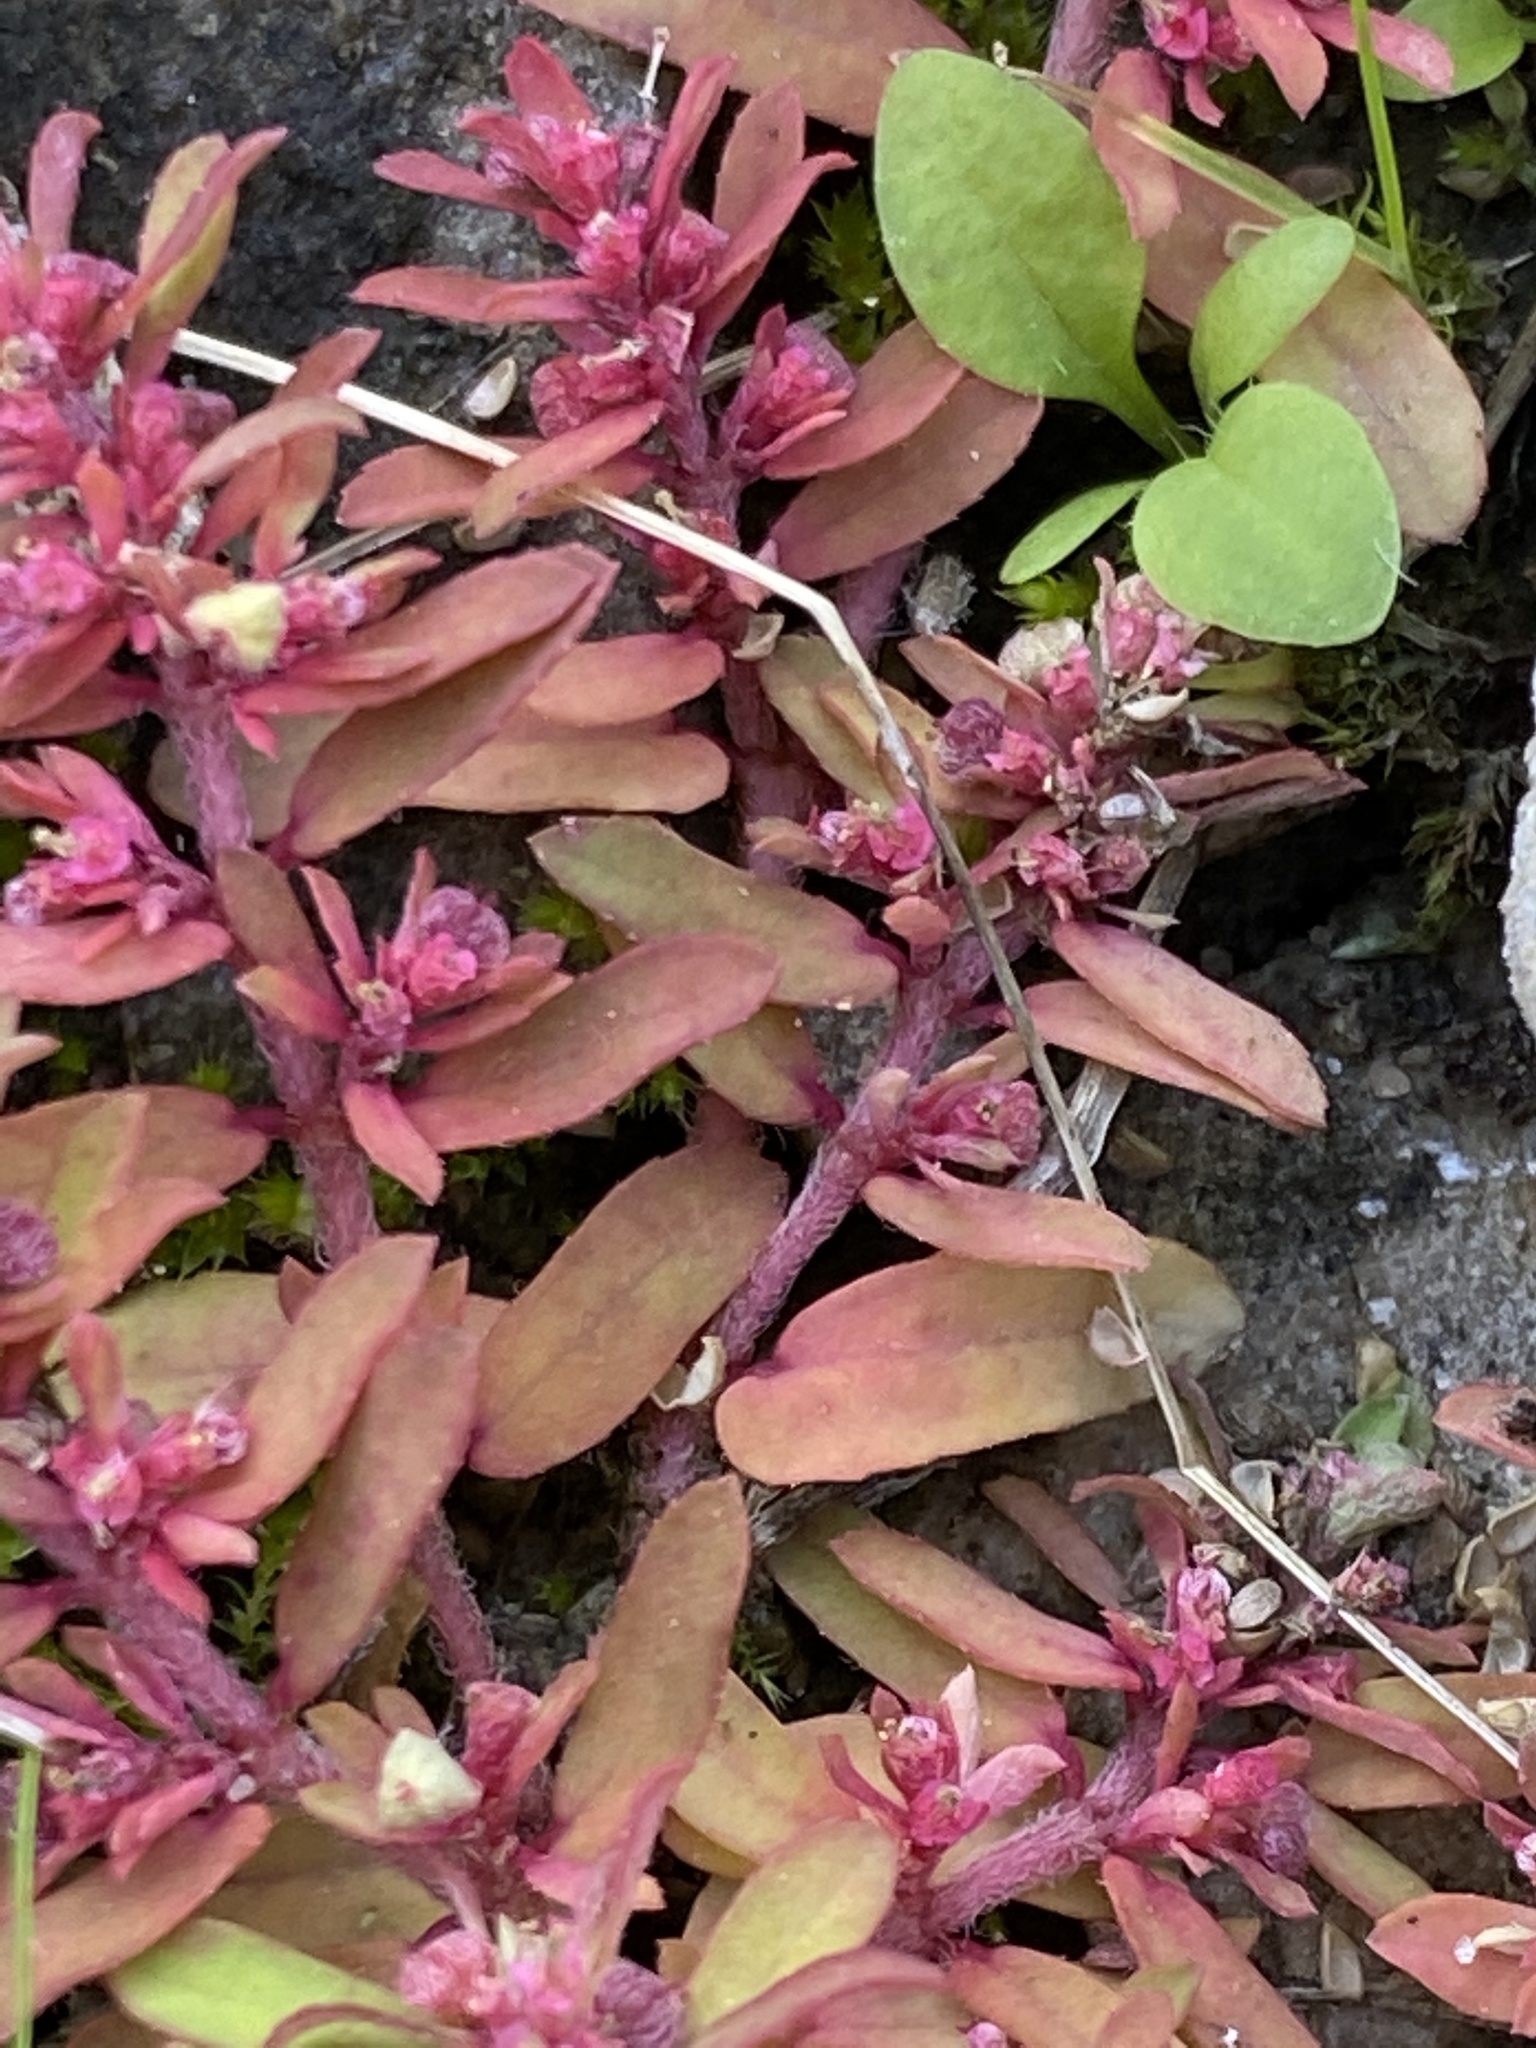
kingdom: Plantae
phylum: Tracheophyta
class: Magnoliopsida
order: Malpighiales
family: Euphorbiaceae
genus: Euphorbia
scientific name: Euphorbia maculata
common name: Spotted spurge
